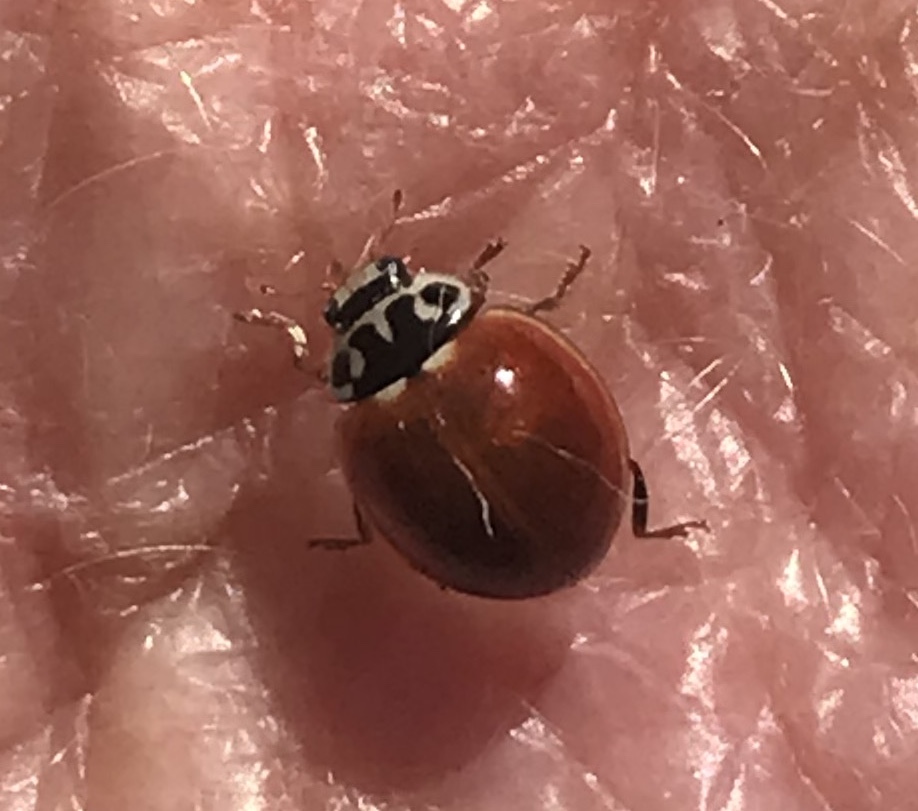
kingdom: Animalia
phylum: Arthropoda
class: Insecta
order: Coleoptera
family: Coccinellidae
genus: Cycloneda
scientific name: Cycloneda polita
